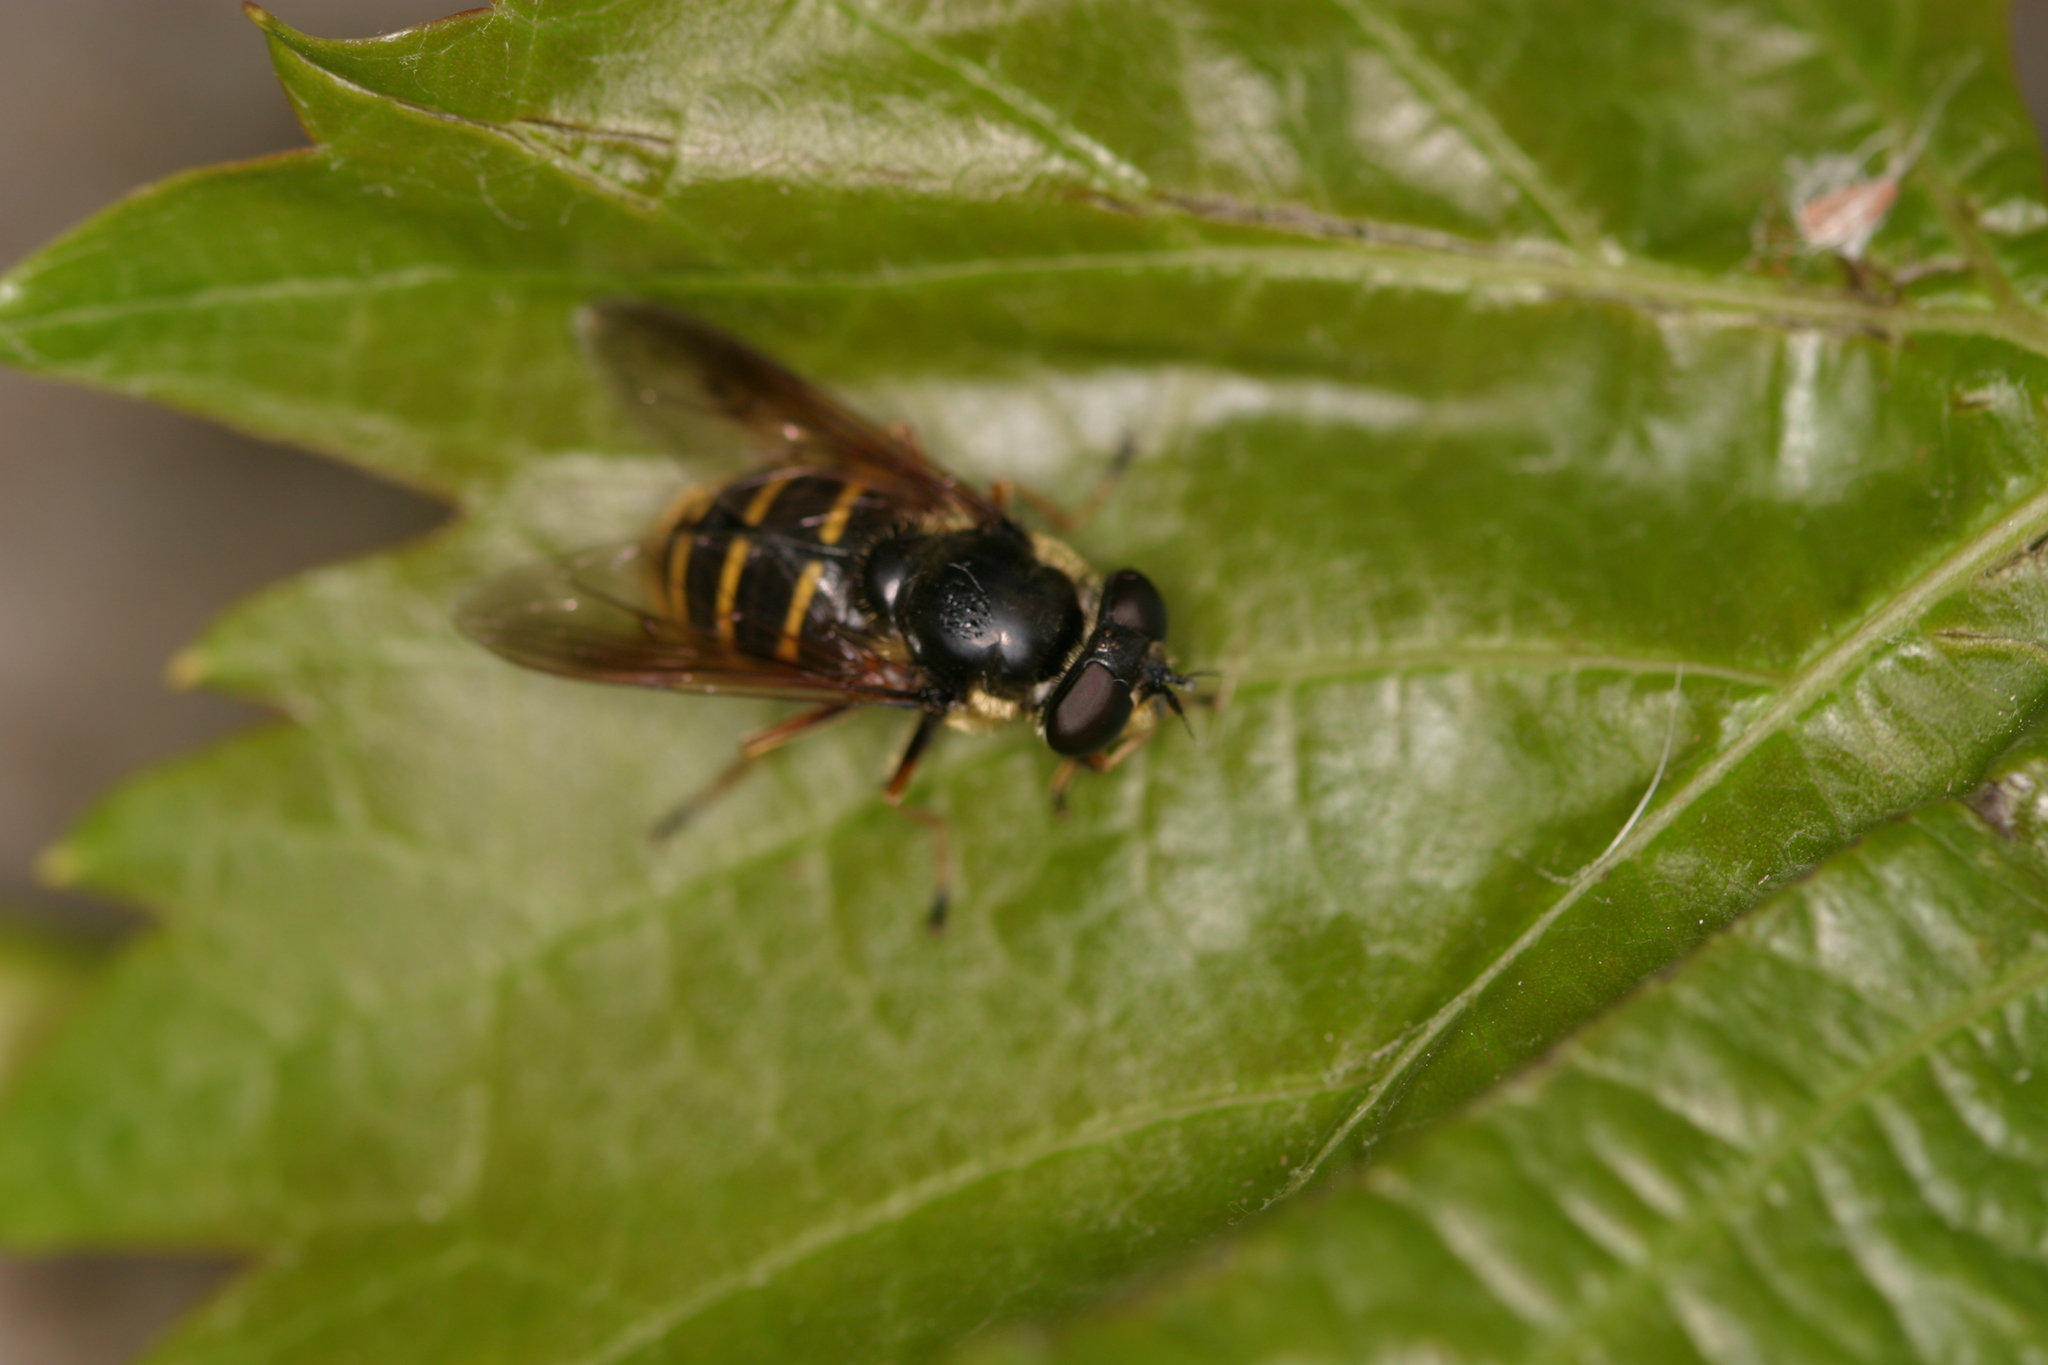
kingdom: Animalia
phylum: Arthropoda
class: Insecta
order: Diptera
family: Syrphidae
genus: Sericomyia
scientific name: Sericomyia chalcopyga
